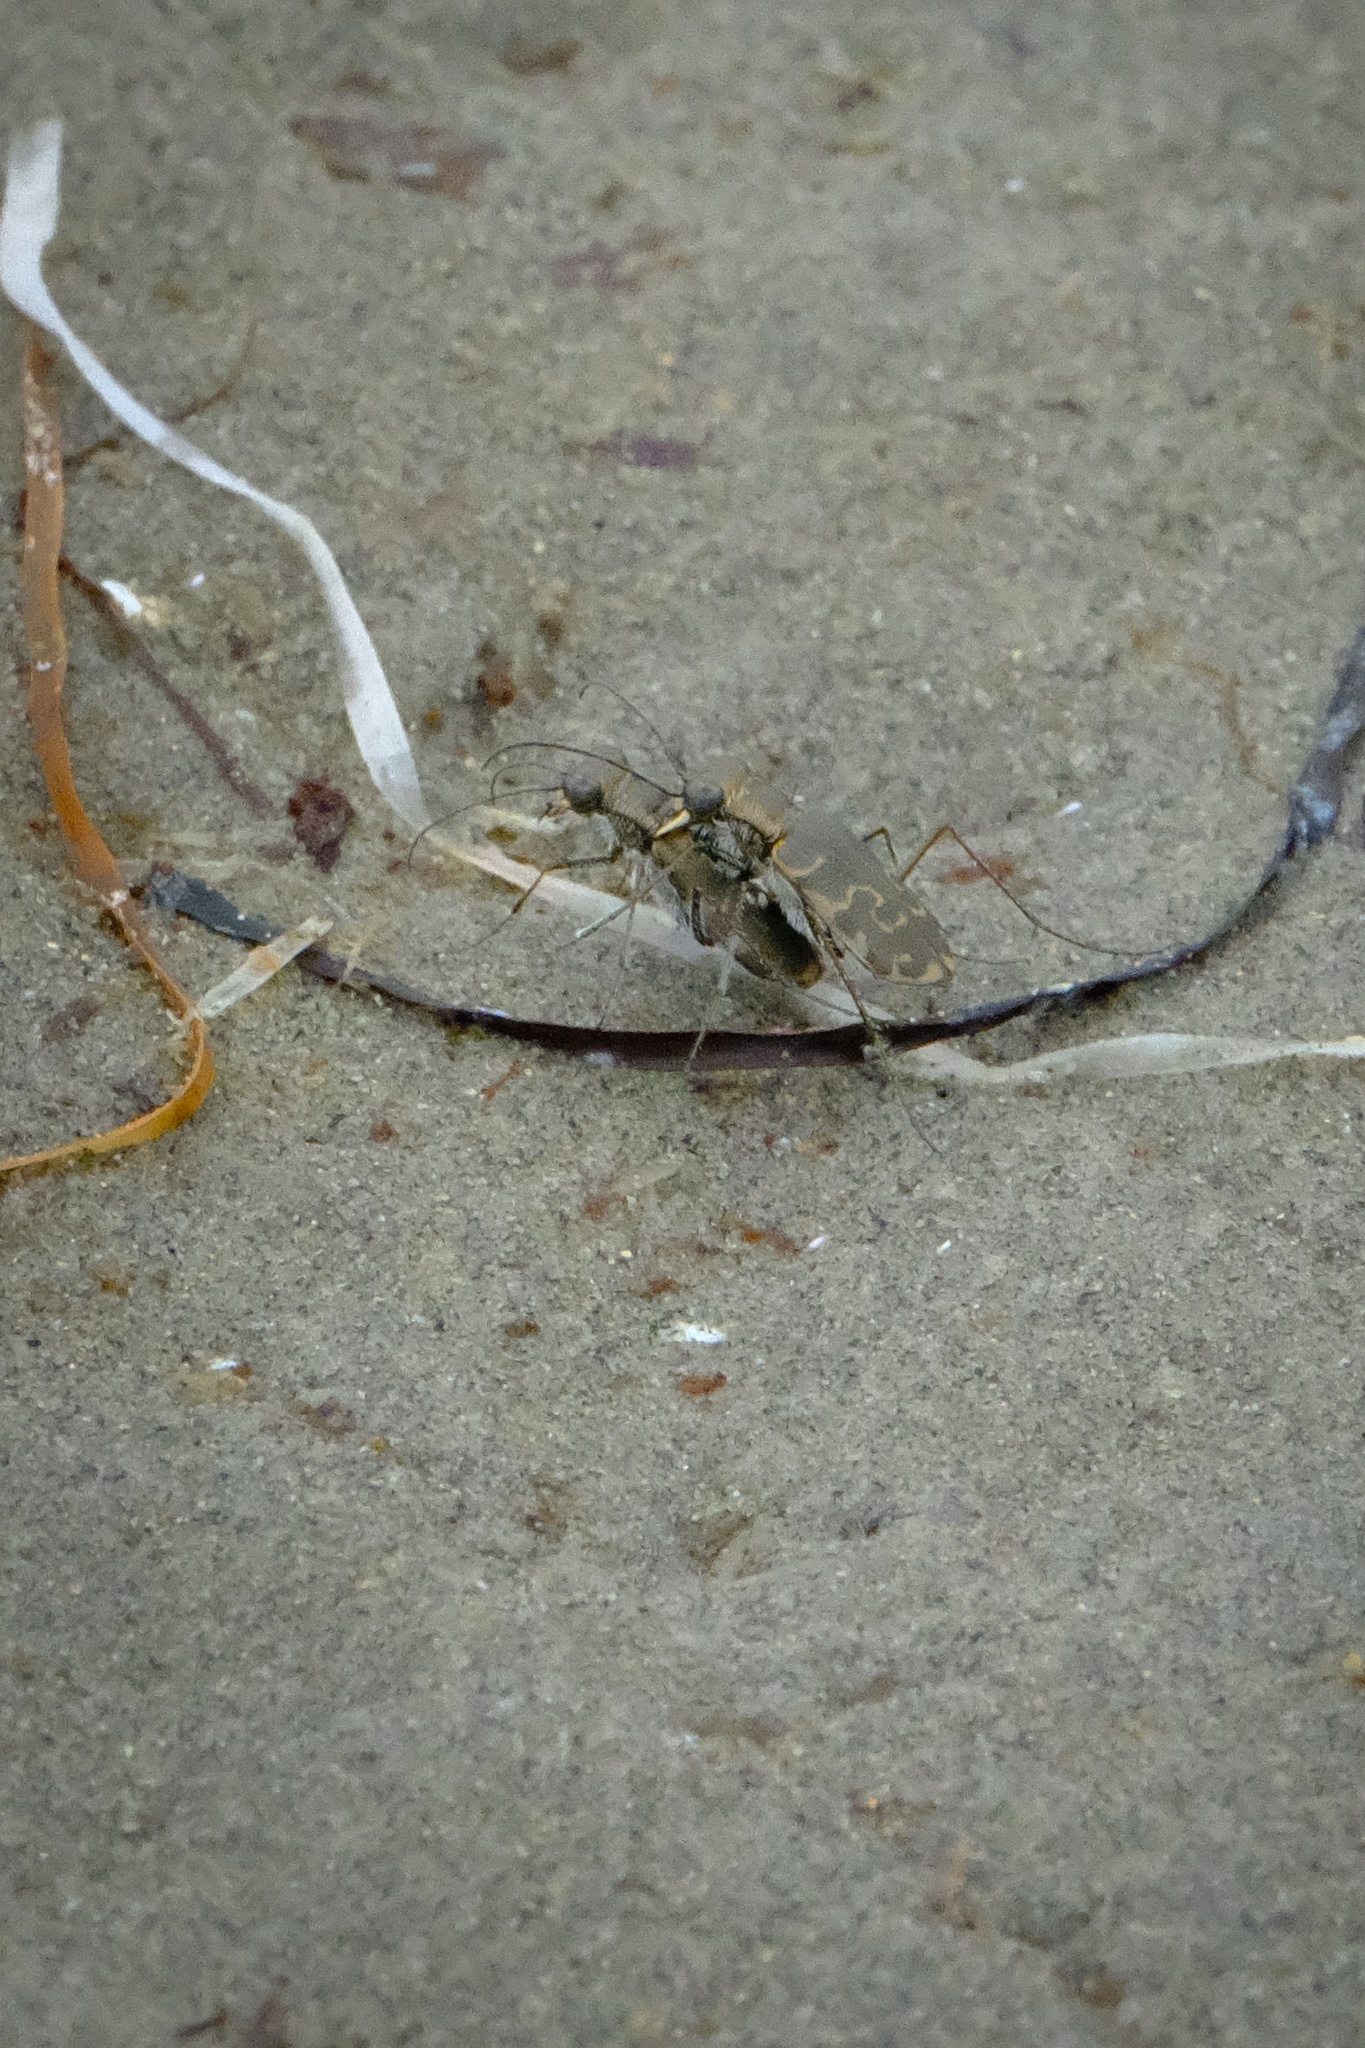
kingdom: Animalia
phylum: Arthropoda
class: Insecta
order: Coleoptera
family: Carabidae
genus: Cicindela
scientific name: Cicindela trifasciata
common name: Mudflat tiger beetle
